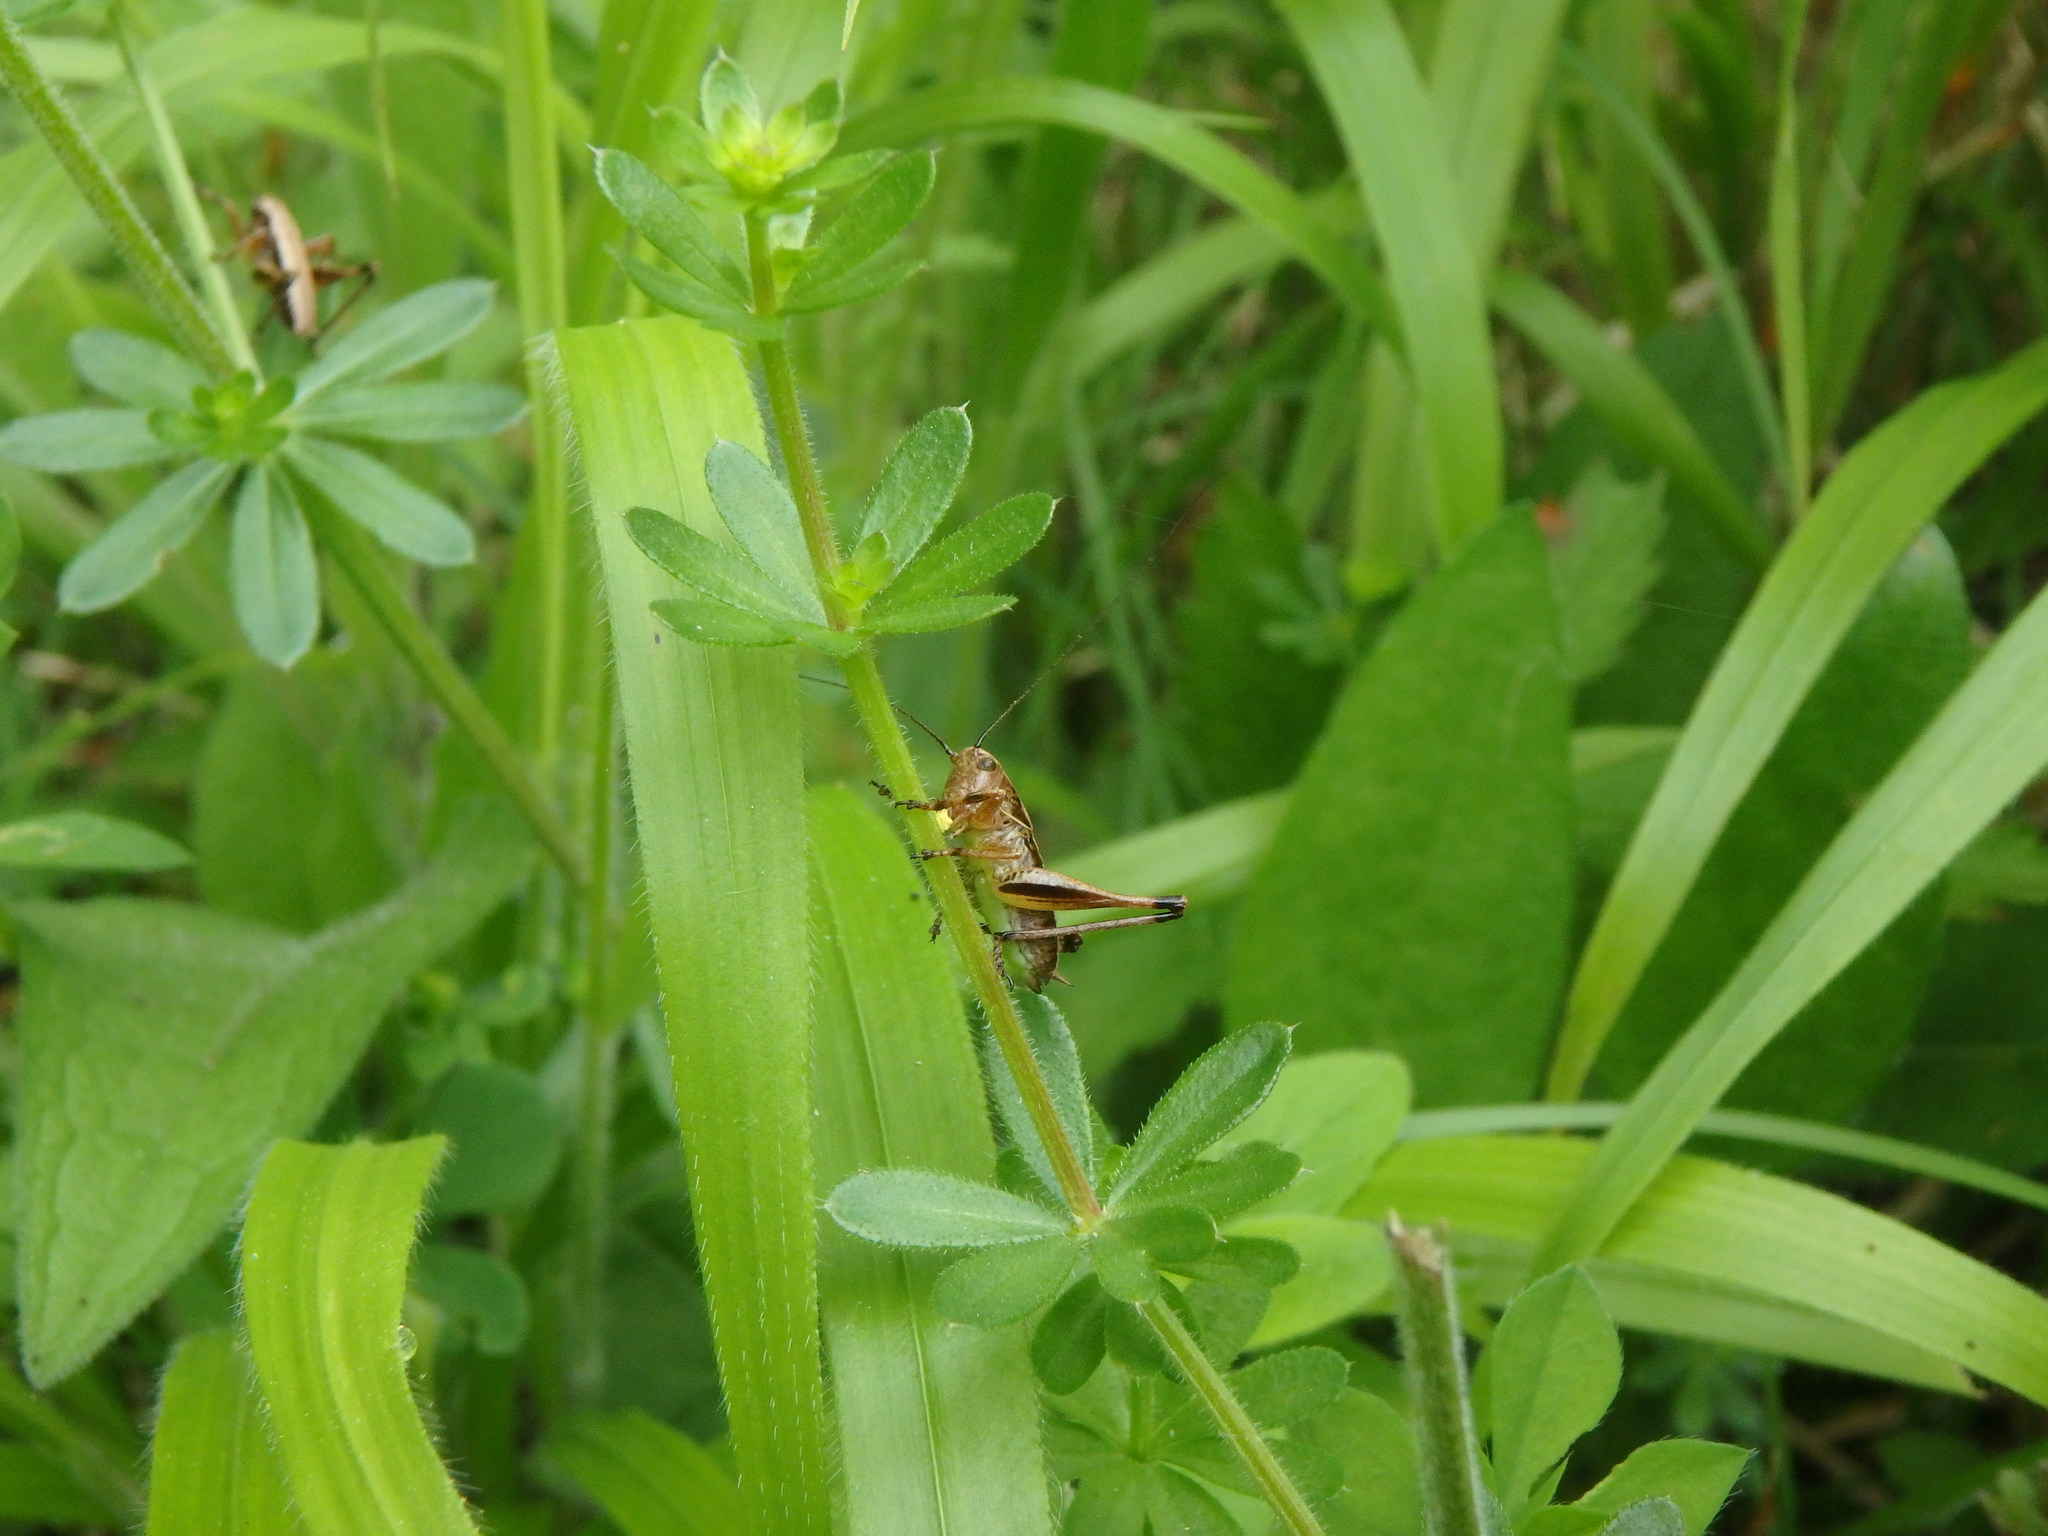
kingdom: Animalia
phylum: Arthropoda
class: Insecta
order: Orthoptera
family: Tettigoniidae
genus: Pholidoptera
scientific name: Pholidoptera griseoaptera
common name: Dark bush-cricket
